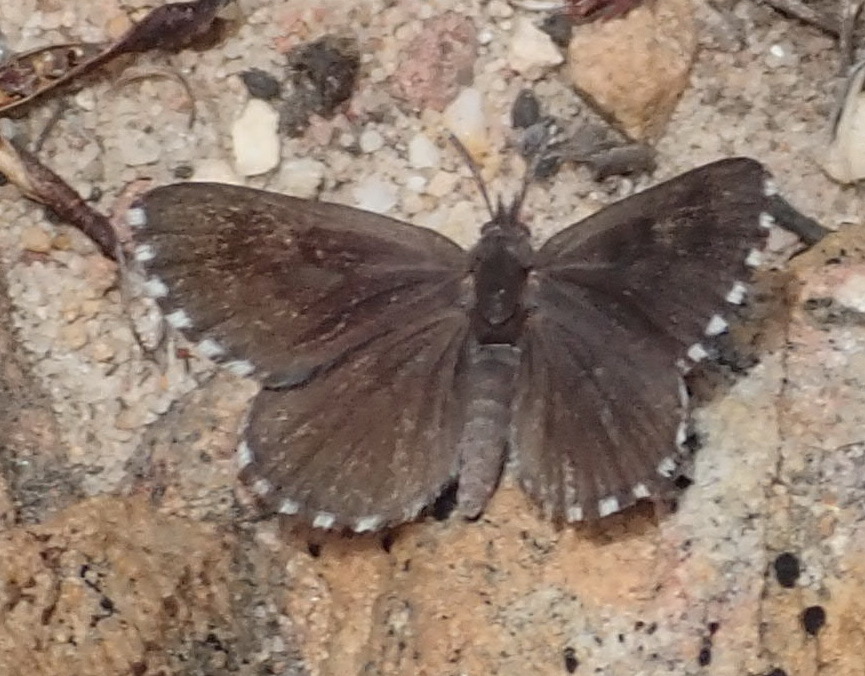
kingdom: Animalia
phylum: Arthropoda
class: Insecta
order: Lepidoptera
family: Lycaenidae
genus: Thestor
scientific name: Thestor penningtoni
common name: Pennington's skolly
